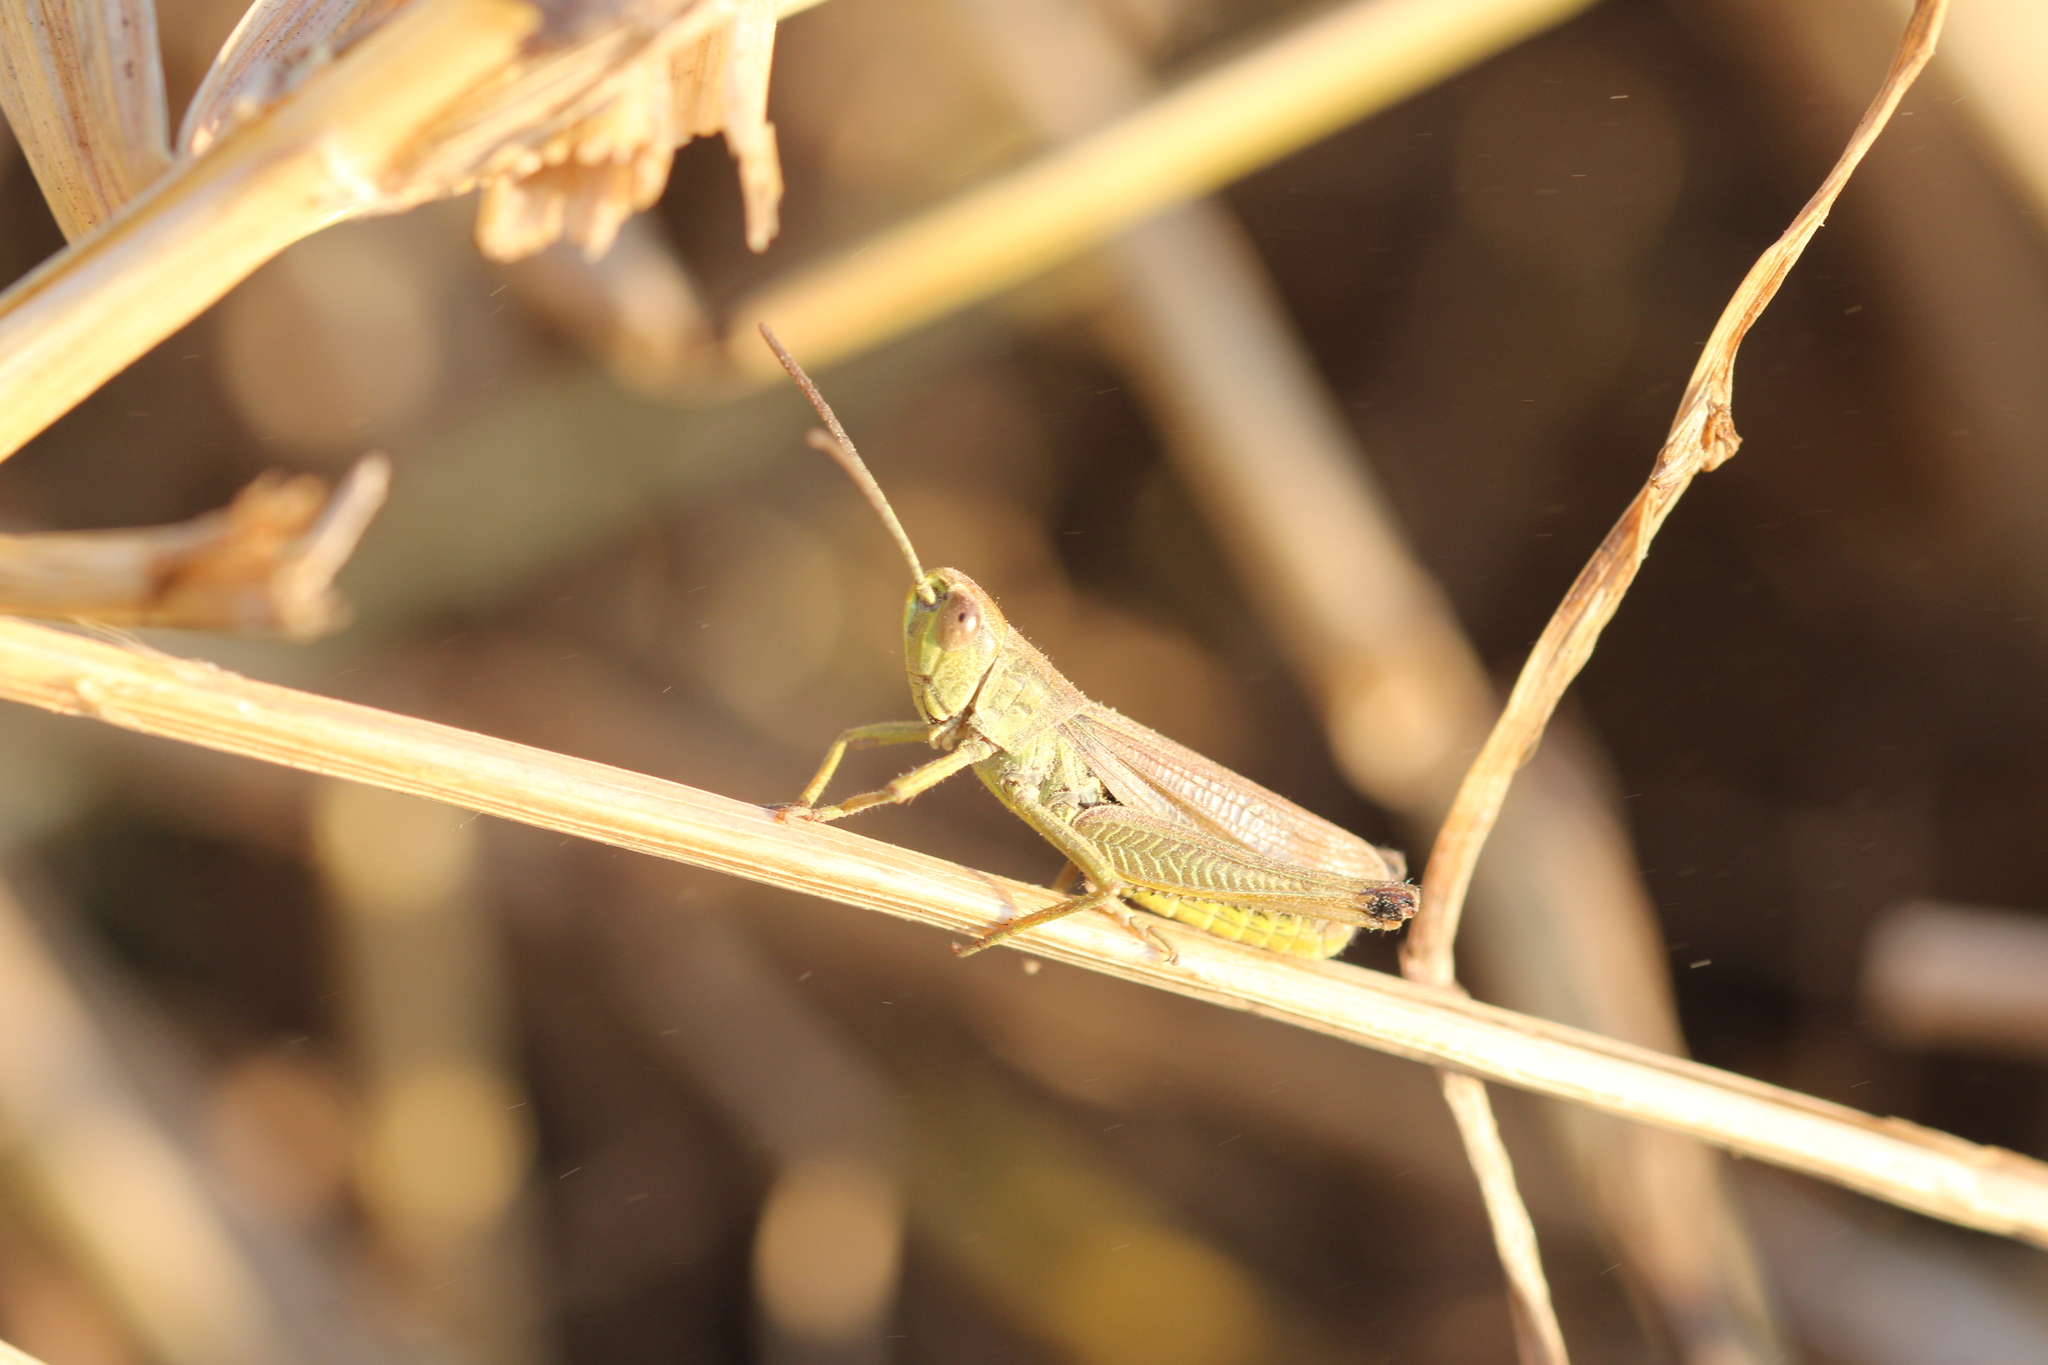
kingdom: Animalia
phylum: Arthropoda
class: Insecta
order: Orthoptera
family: Acrididae
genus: Pseudochorthippus
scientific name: Pseudochorthippus parallelus
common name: Meadow grasshopper
